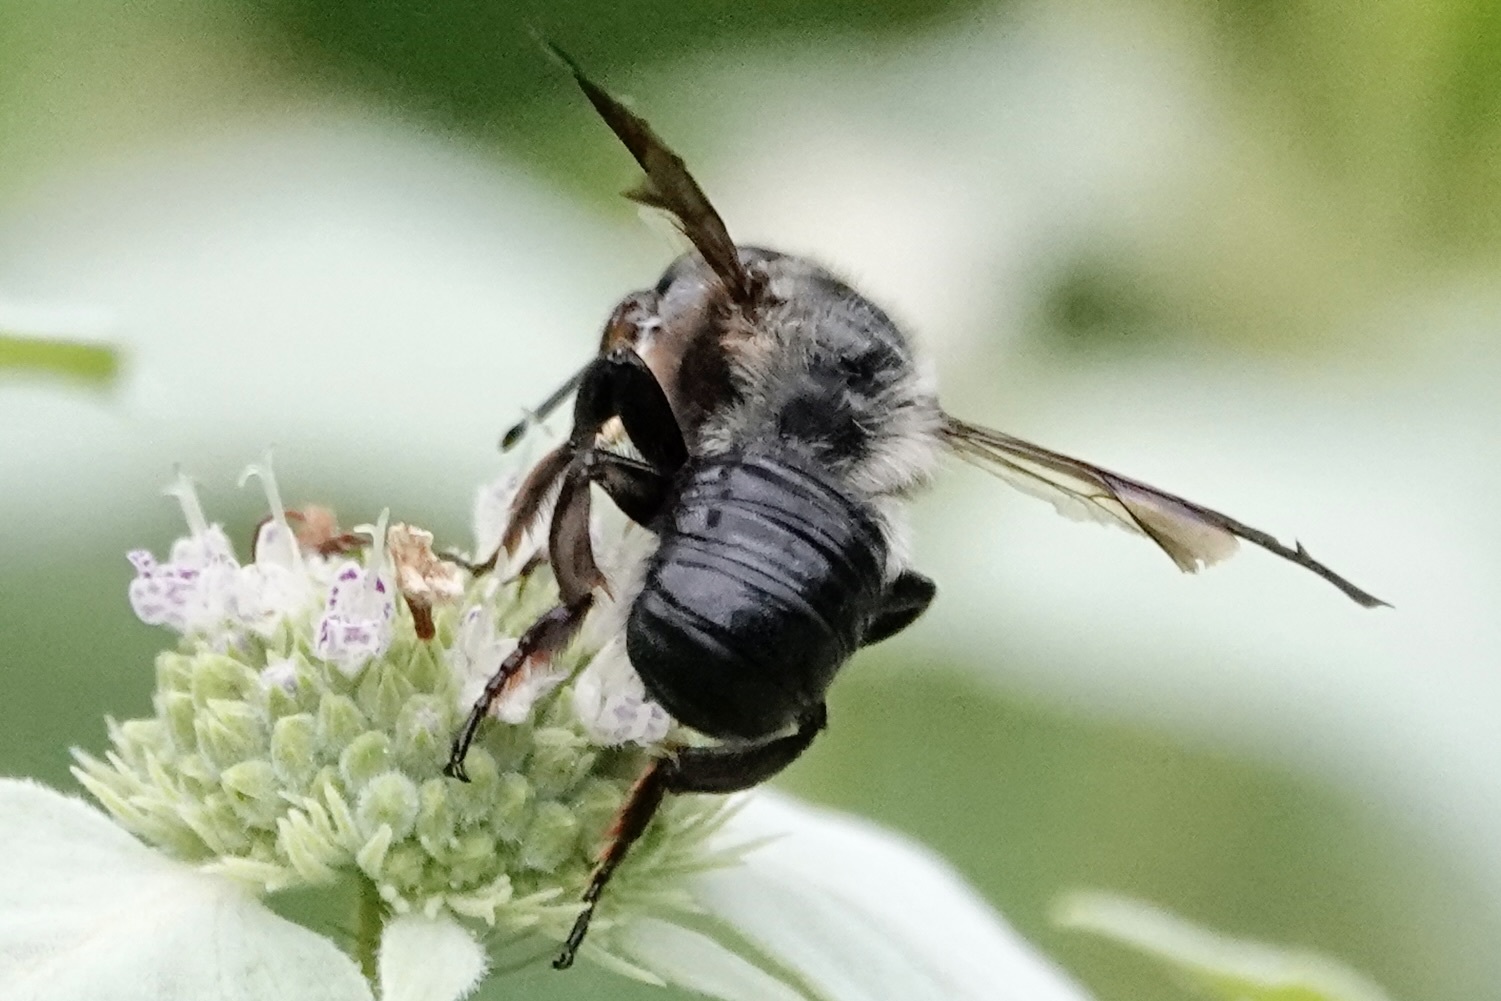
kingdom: Animalia
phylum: Arthropoda
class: Insecta
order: Hymenoptera
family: Megachilidae
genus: Megachile
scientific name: Megachile xylocopoides
